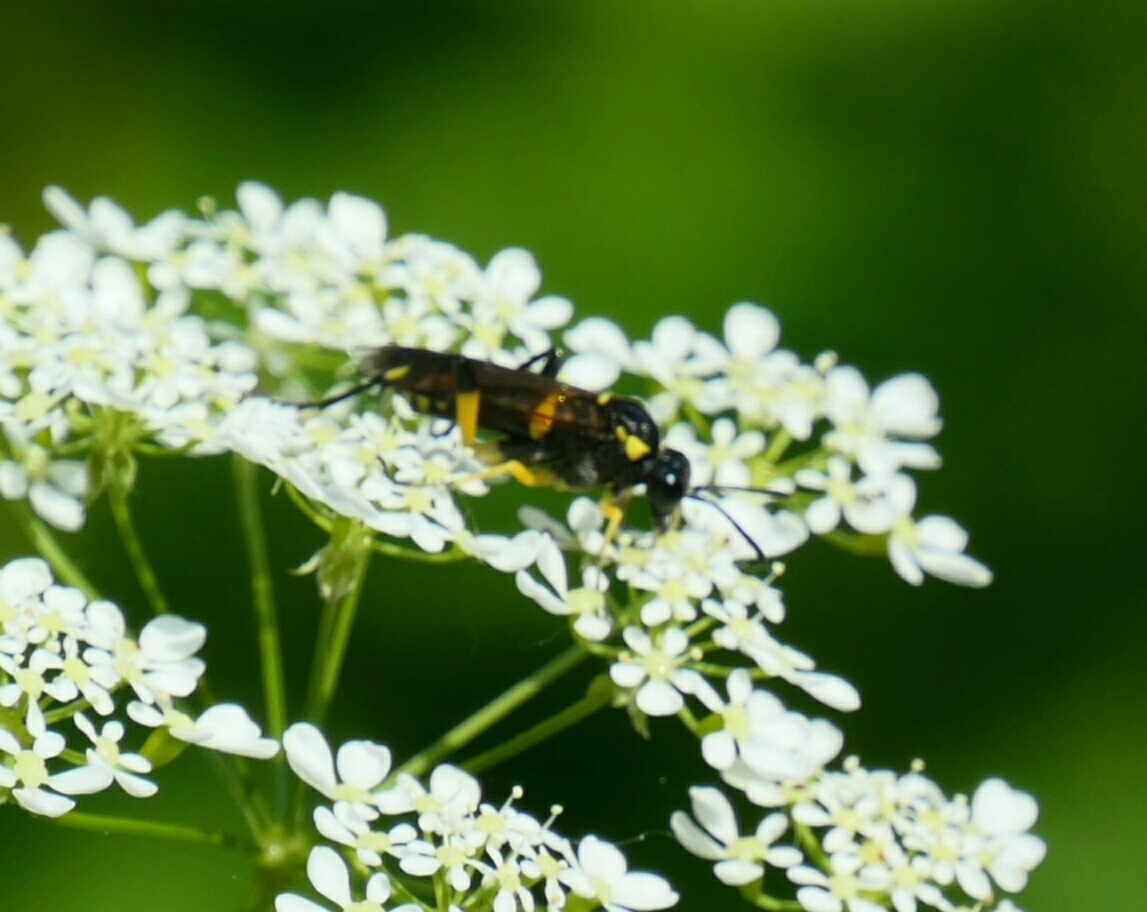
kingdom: Animalia
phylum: Arthropoda
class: Insecta
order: Hymenoptera
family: Tenthredinidae
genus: Macrophya
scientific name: Macrophya montana
